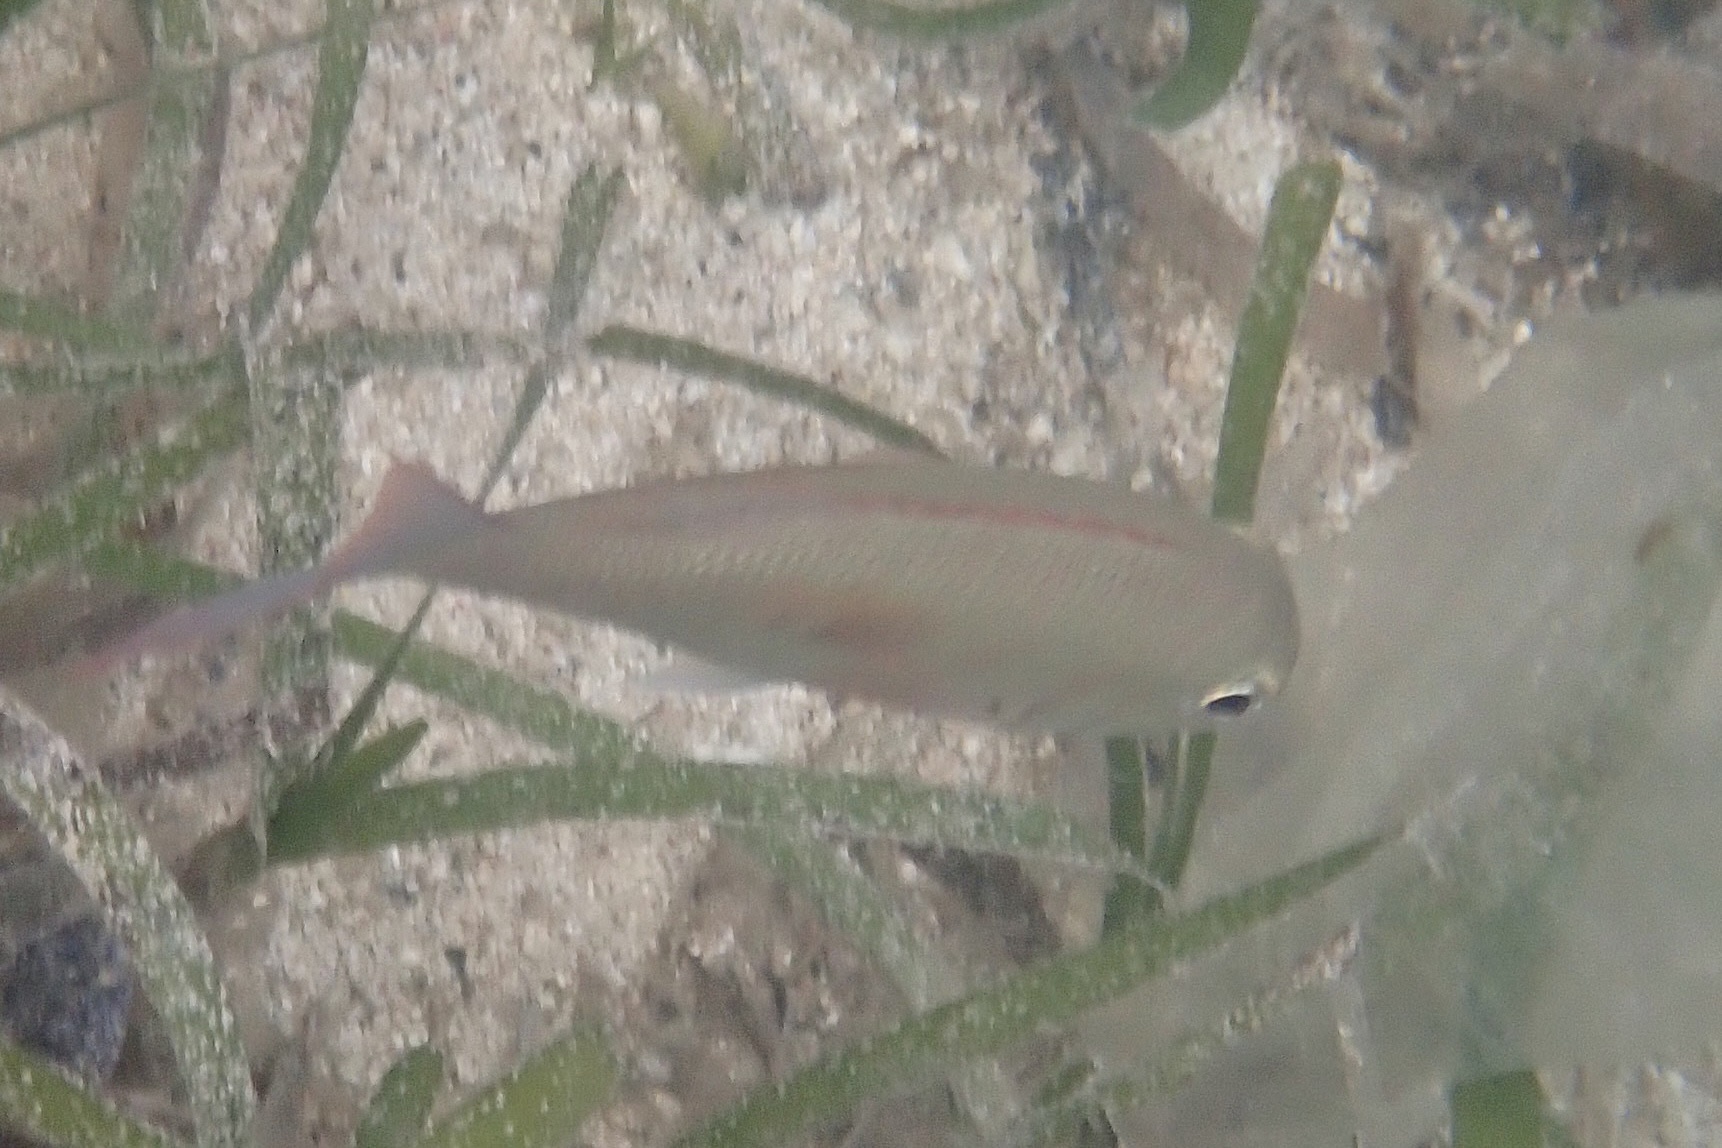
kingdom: Animalia
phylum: Chordata
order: Perciformes
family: Lethrinidae
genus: Lethrinus
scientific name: Lethrinus harak
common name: Blackspot emperor
